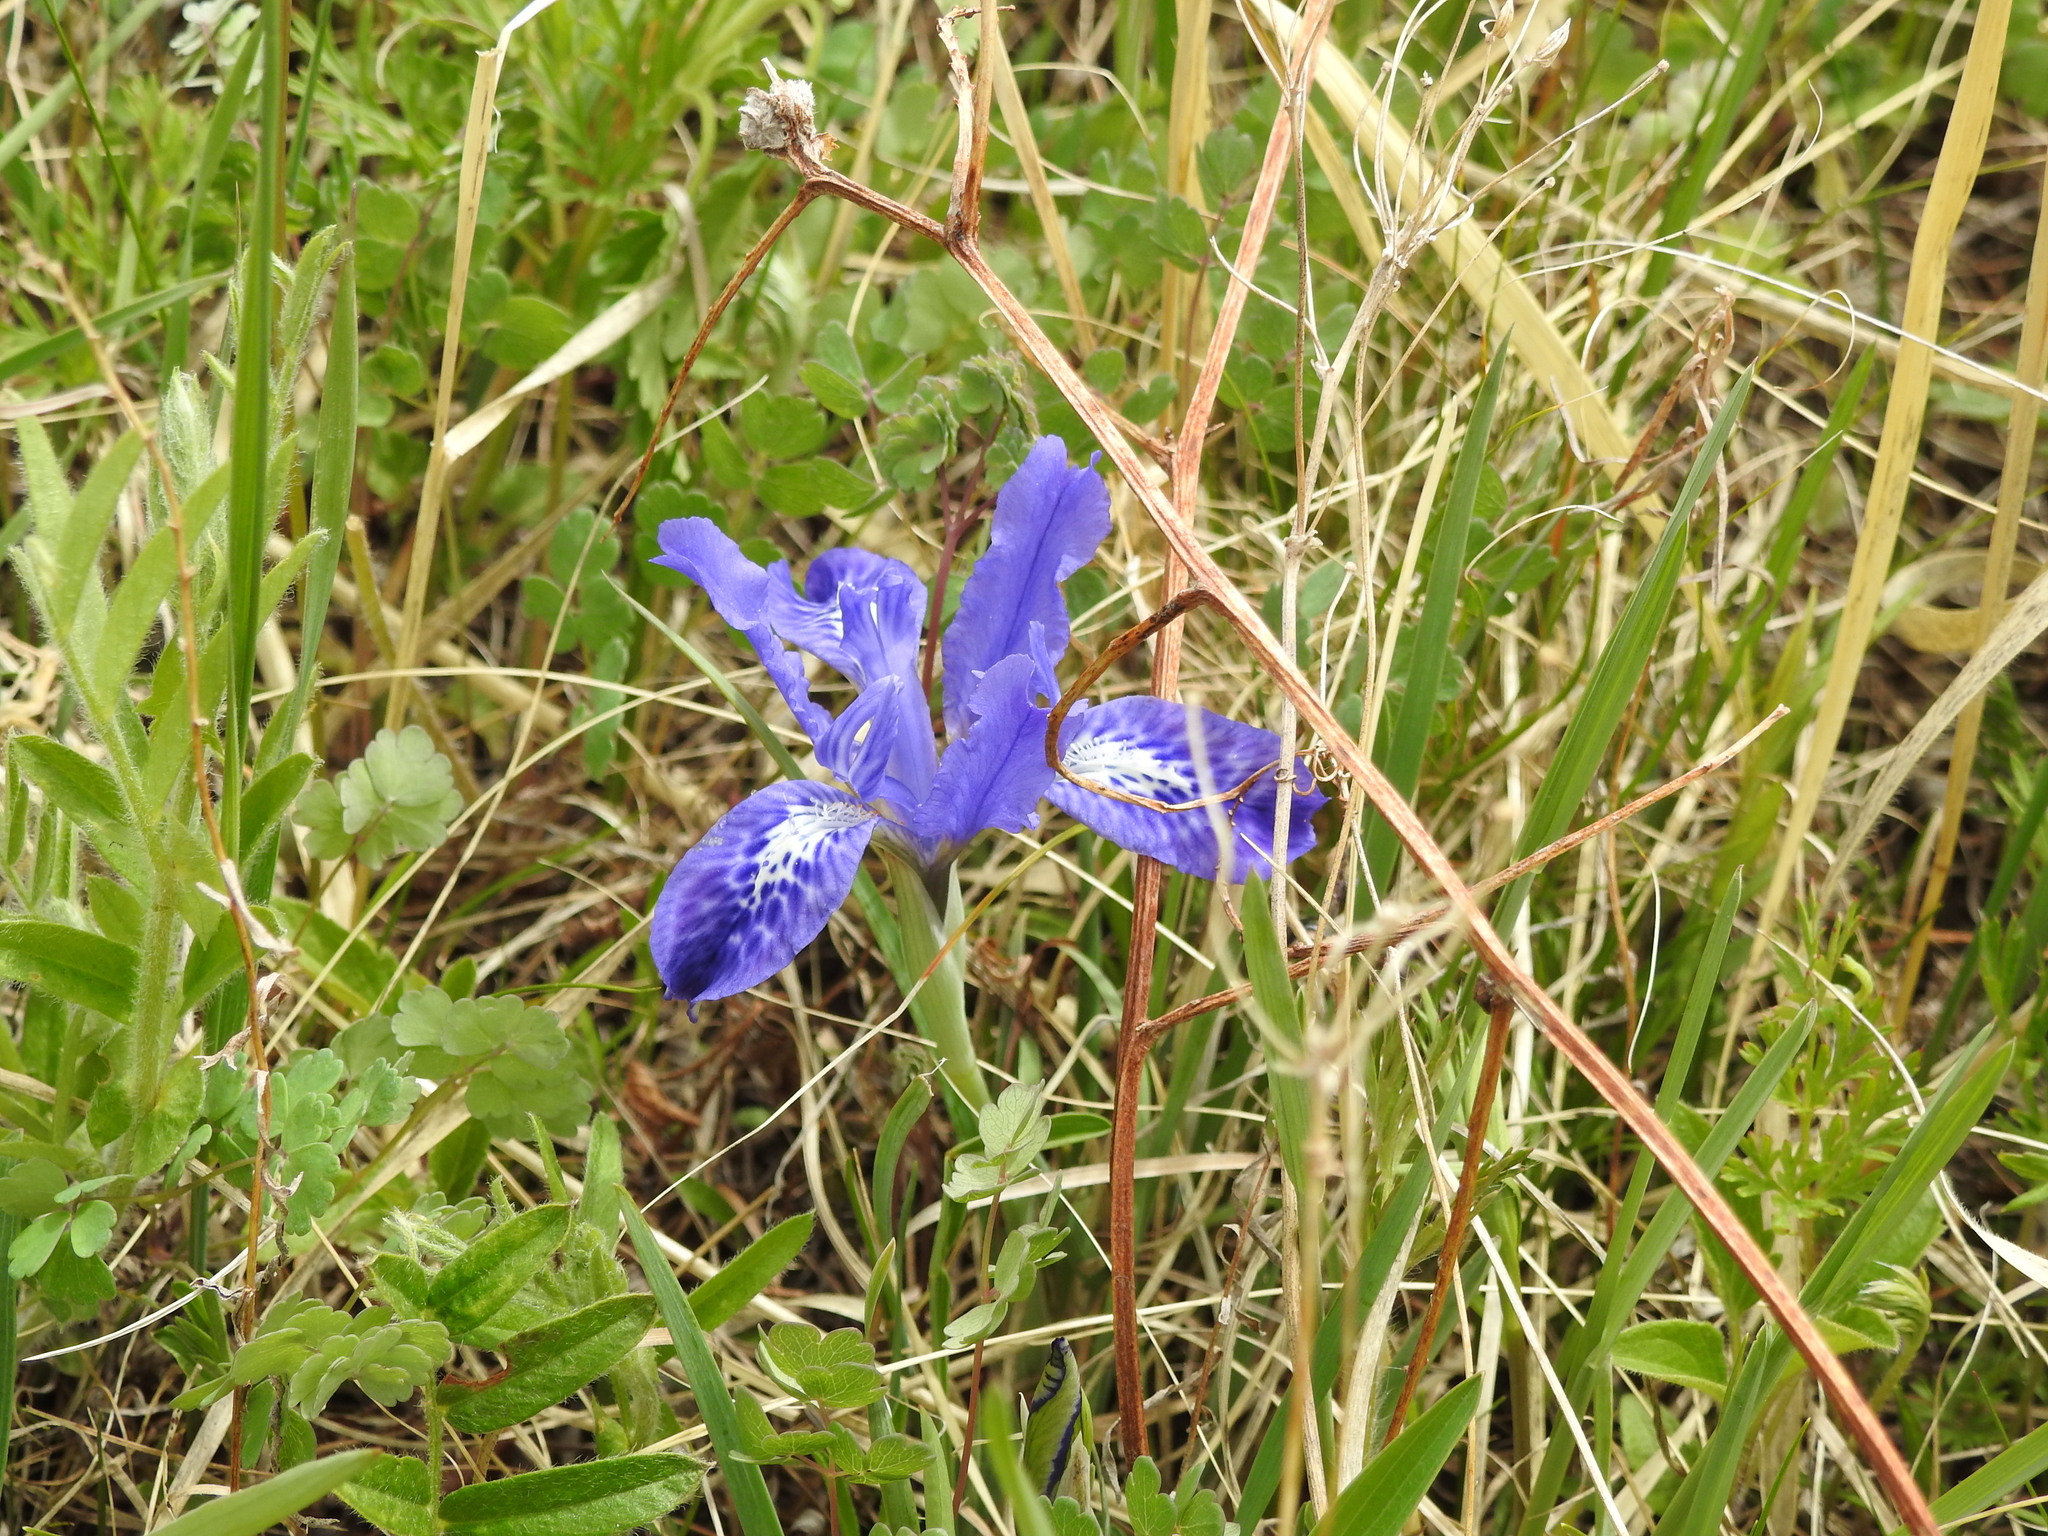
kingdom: Plantae
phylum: Tracheophyta
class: Liliopsida
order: Asparagales
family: Iridaceae
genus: Iris
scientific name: Iris tigridia
